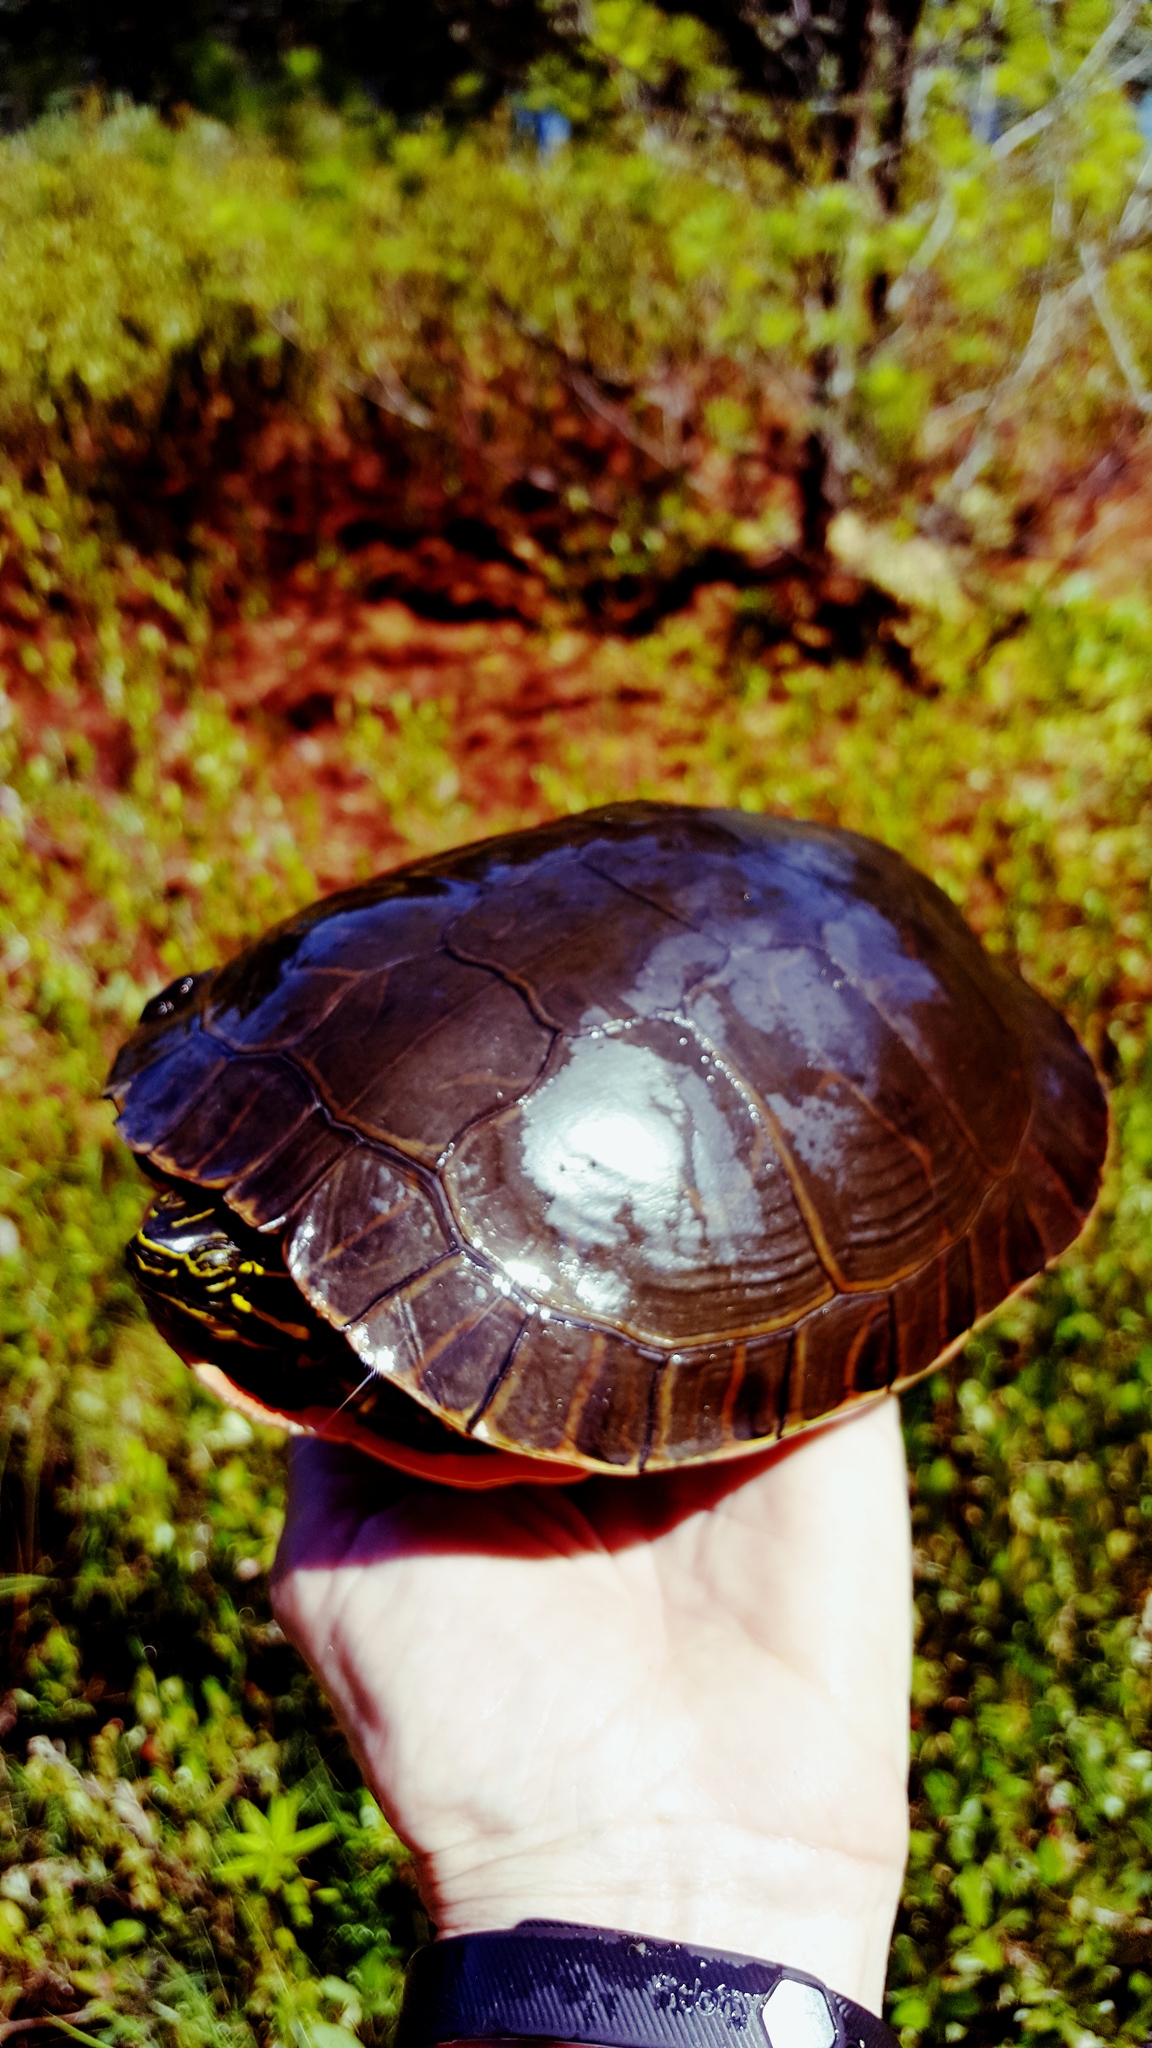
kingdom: Animalia
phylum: Chordata
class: Testudines
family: Emydidae
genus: Chrysemys
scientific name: Chrysemys picta
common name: Painted turtle
